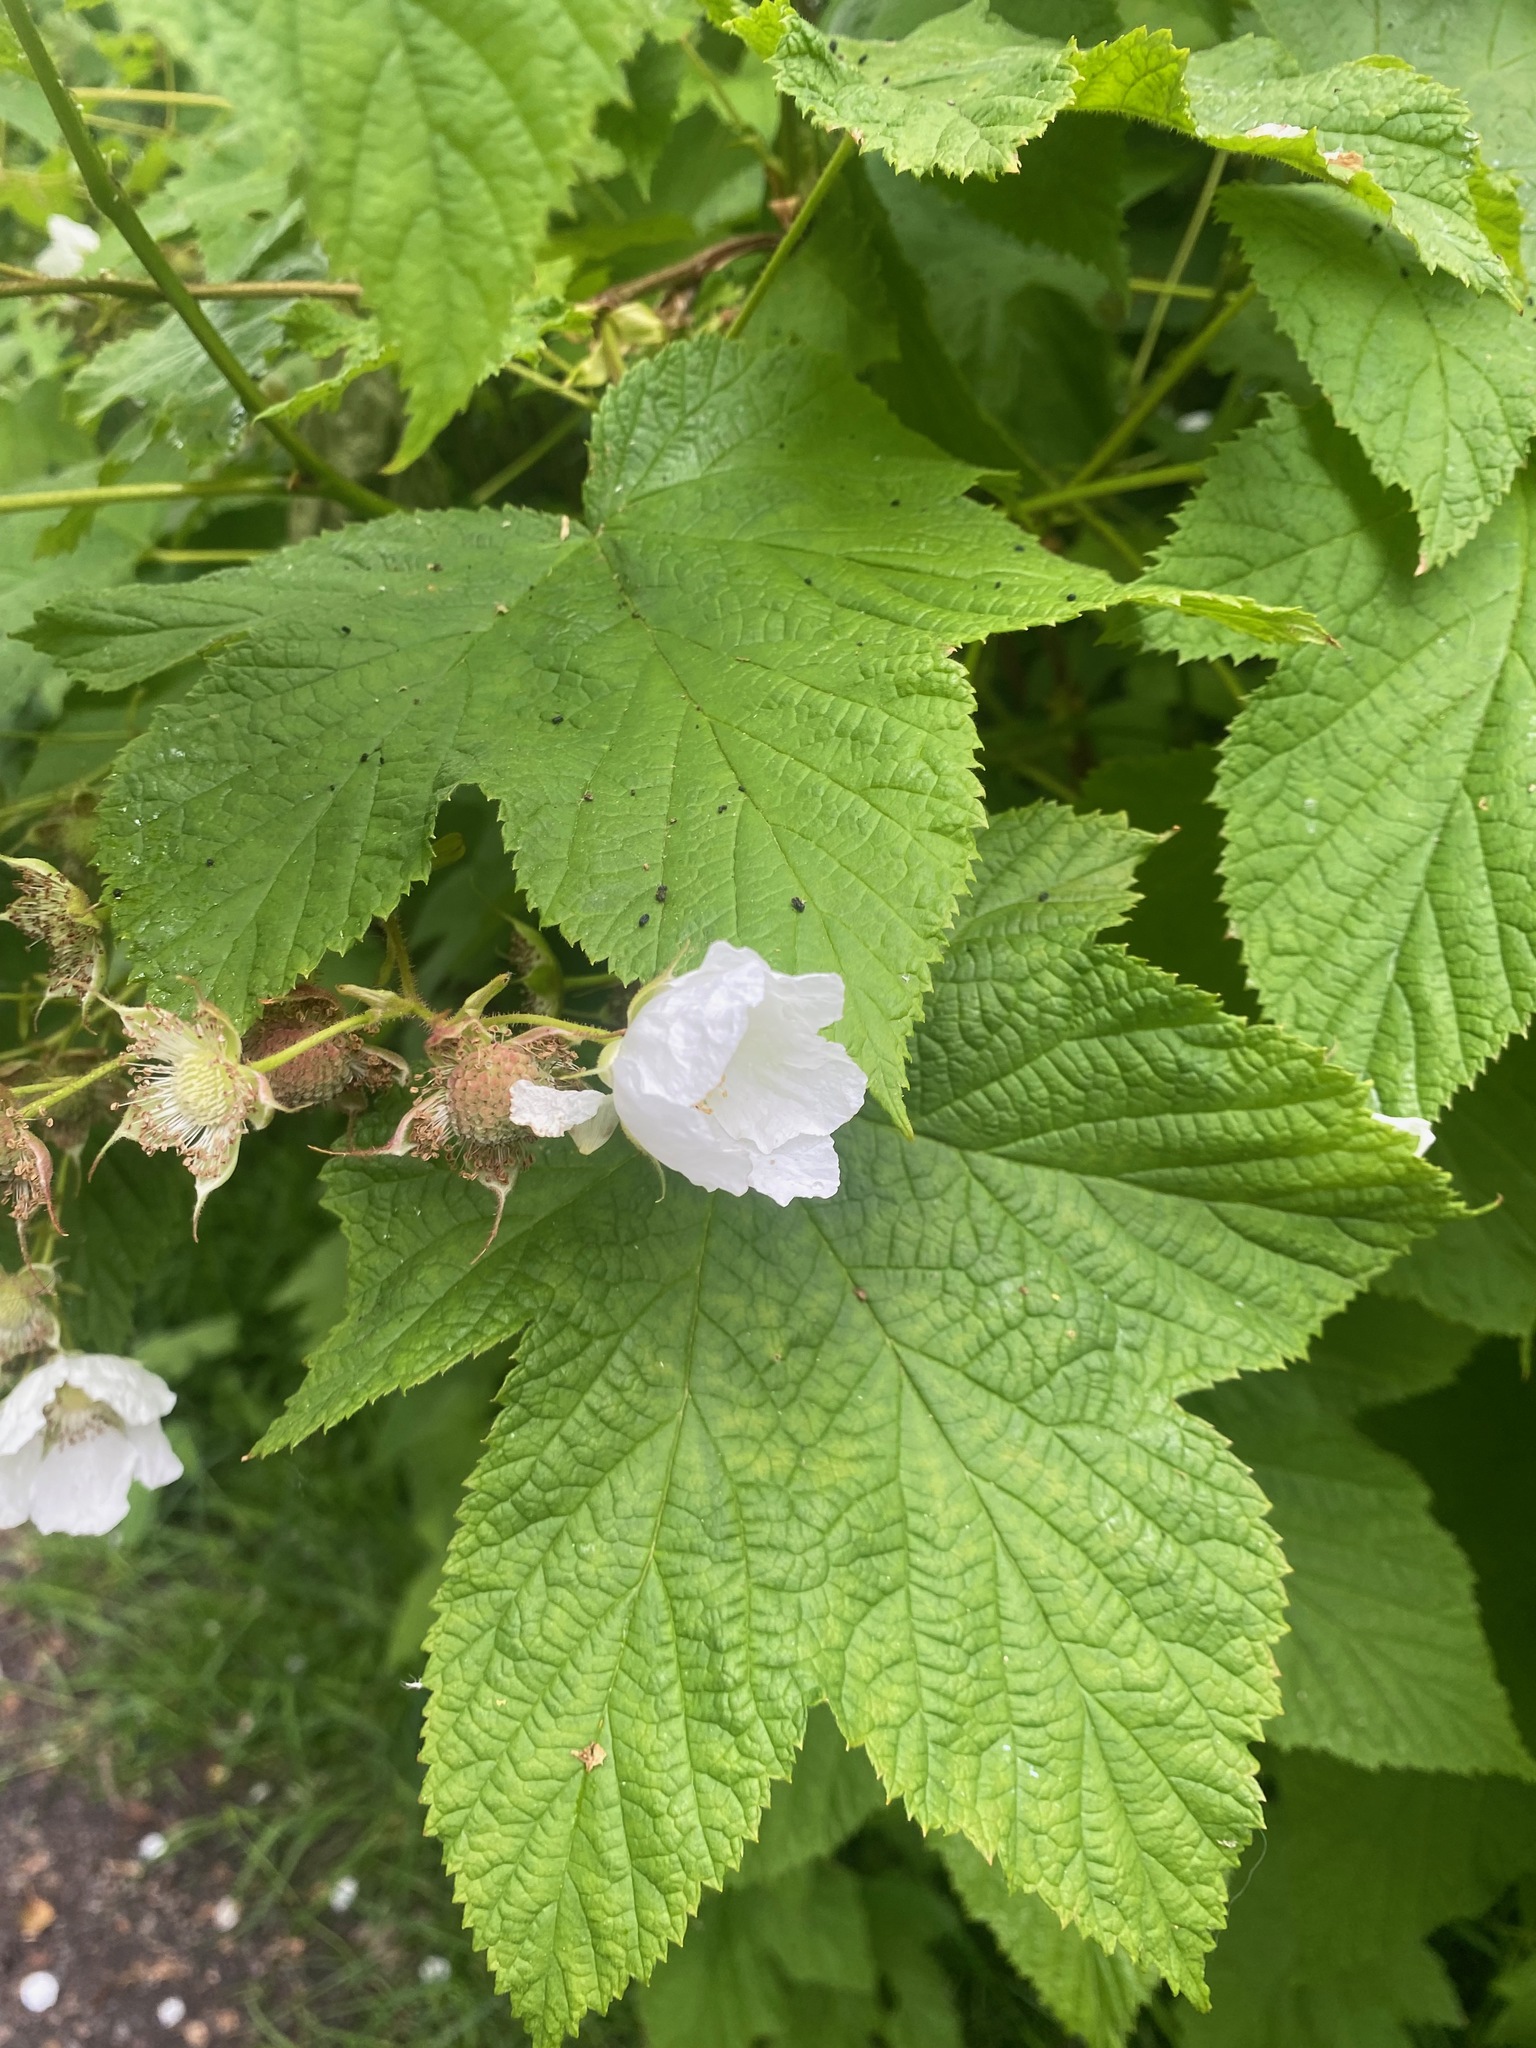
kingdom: Plantae
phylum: Tracheophyta
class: Magnoliopsida
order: Rosales
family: Rosaceae
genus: Rubus
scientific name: Rubus parviflorus
